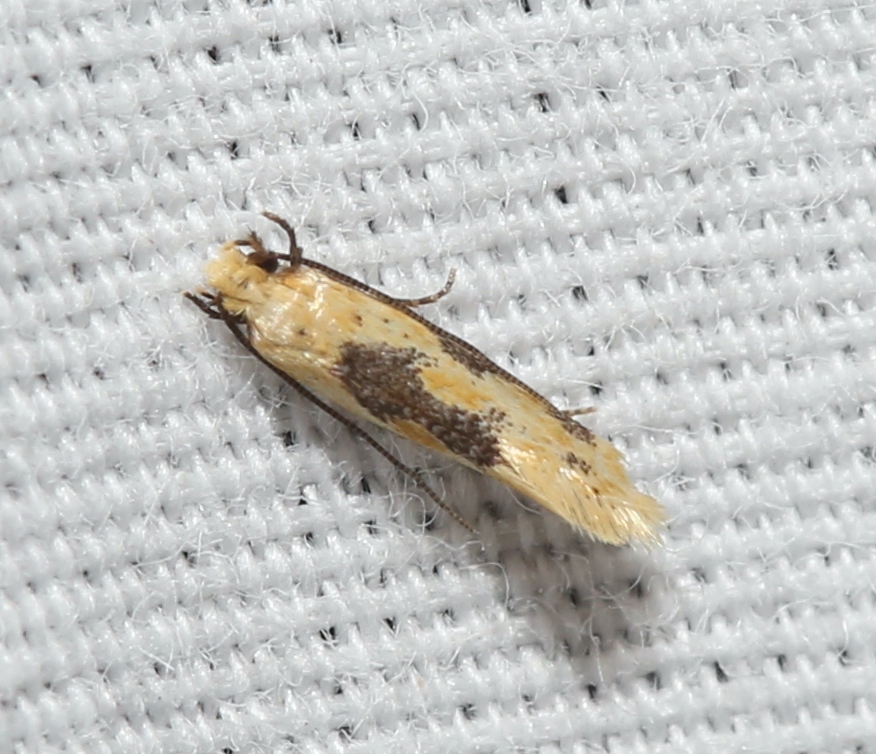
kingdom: Animalia
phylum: Arthropoda
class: Insecta
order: Lepidoptera
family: Meessiidae
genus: Hybroma
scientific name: Hybroma servulella
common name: Yellow wave moth
